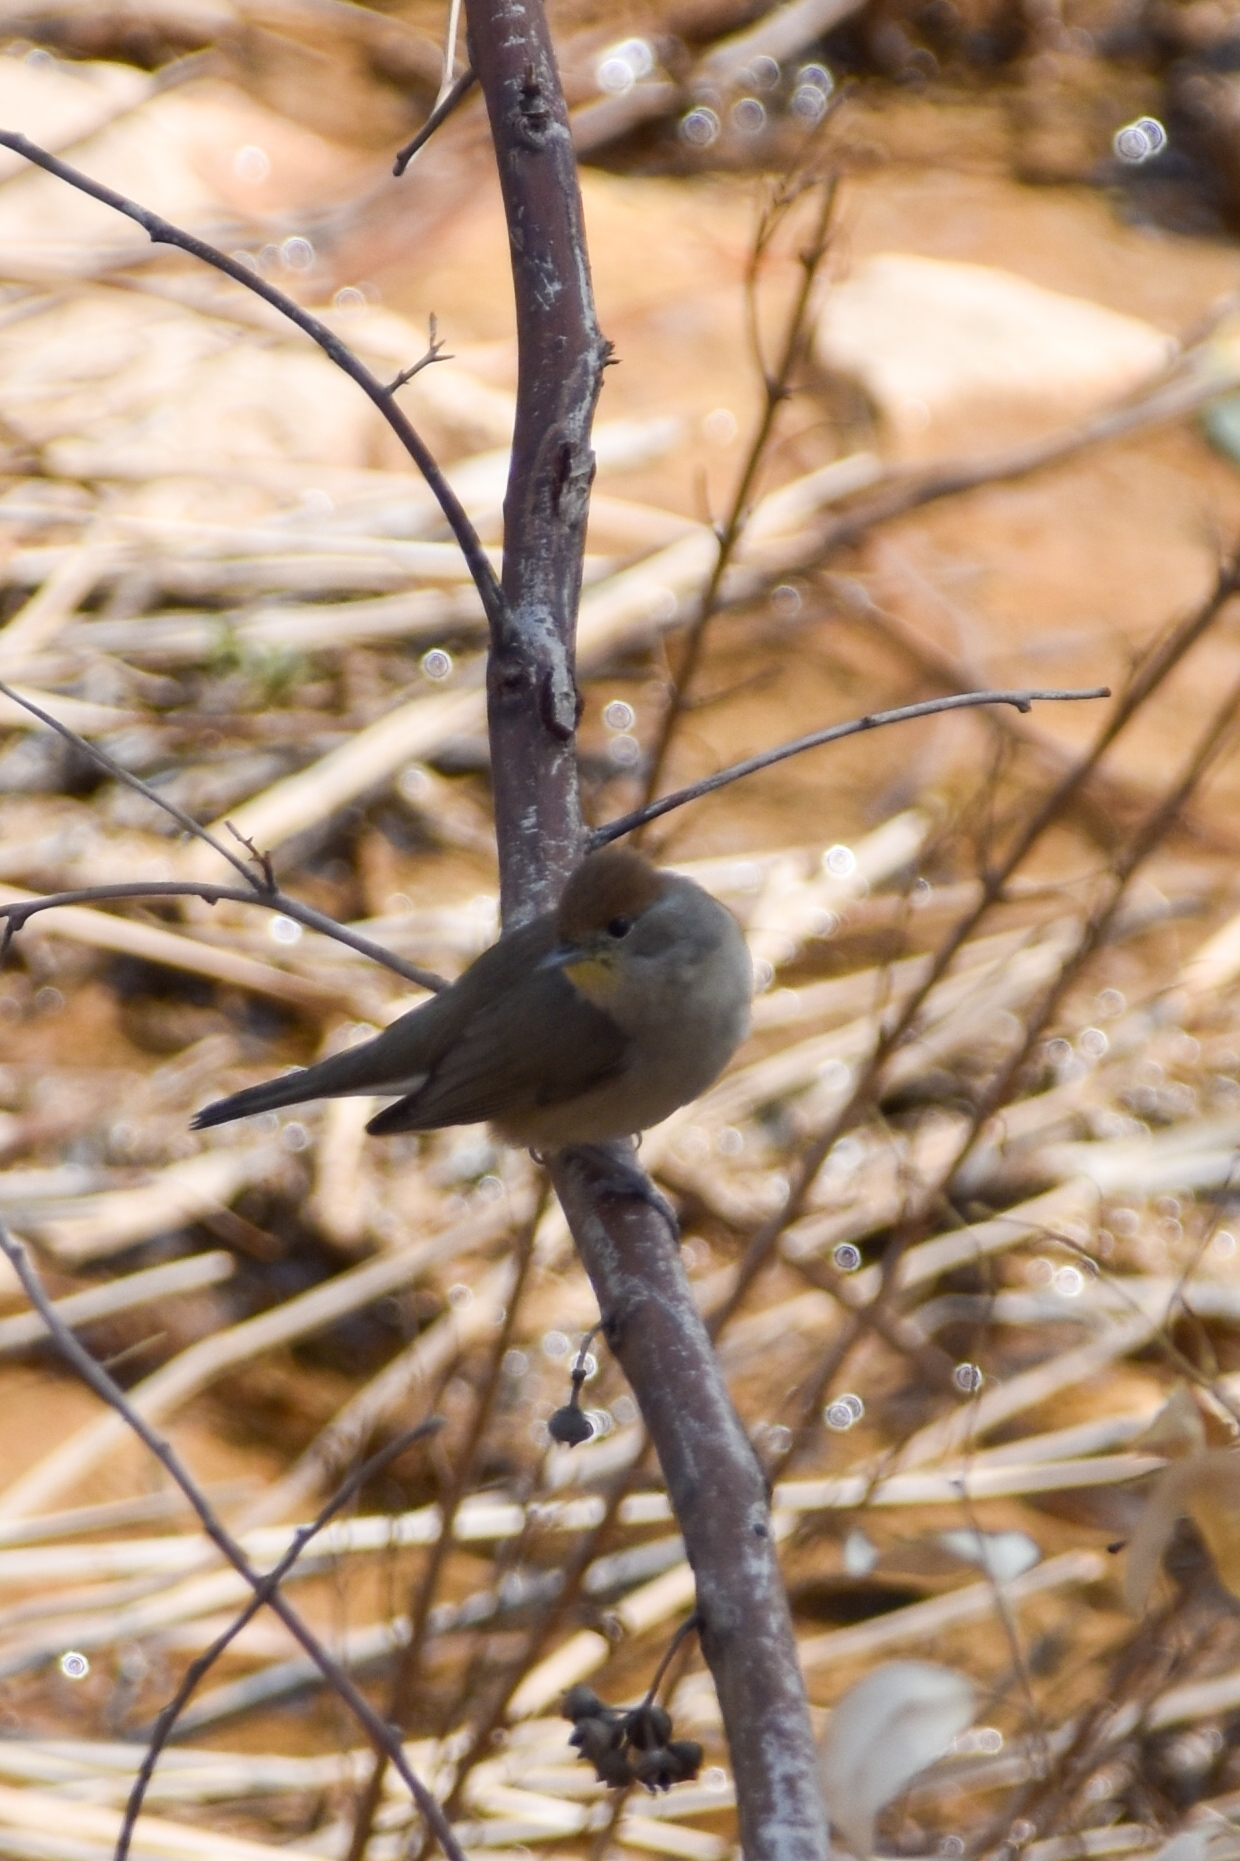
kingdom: Animalia
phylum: Chordata
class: Aves
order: Passeriformes
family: Sylviidae
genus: Sylvia
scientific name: Sylvia atricapilla
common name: Eurasian blackcap
